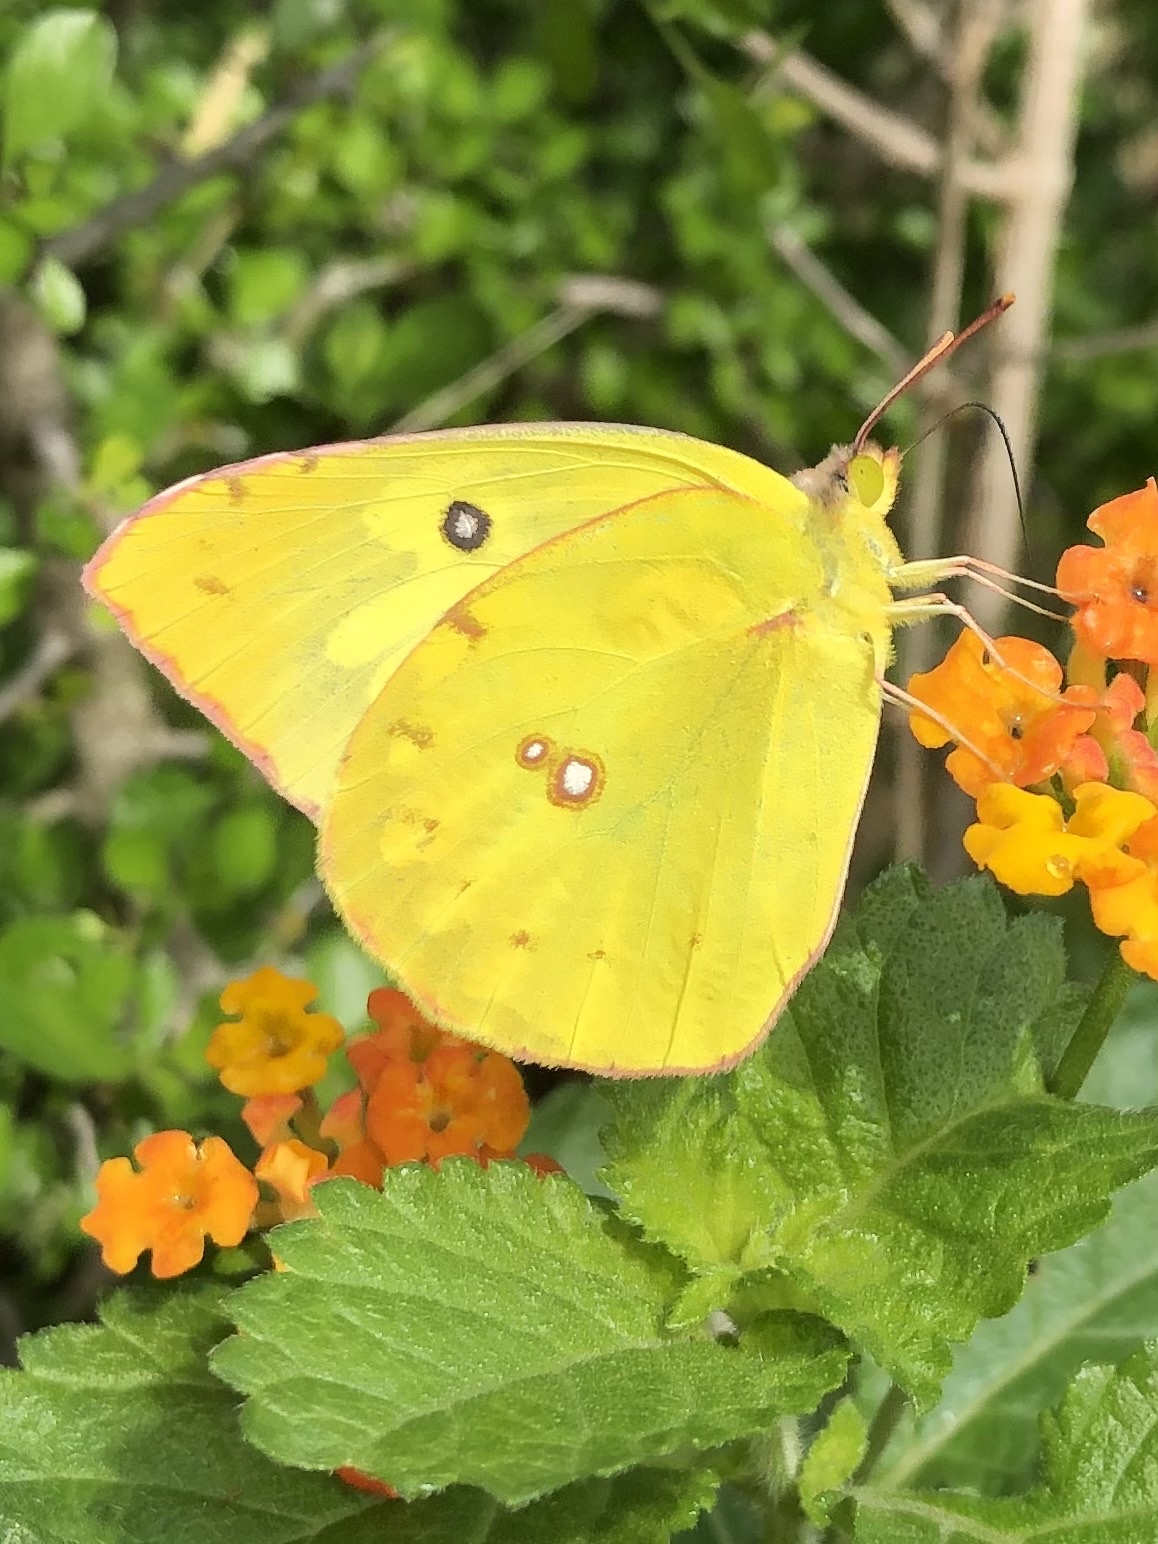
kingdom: Animalia
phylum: Arthropoda
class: Insecta
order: Lepidoptera
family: Pieridae
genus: Zerene
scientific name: Zerene cesonia
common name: Southern dogface
